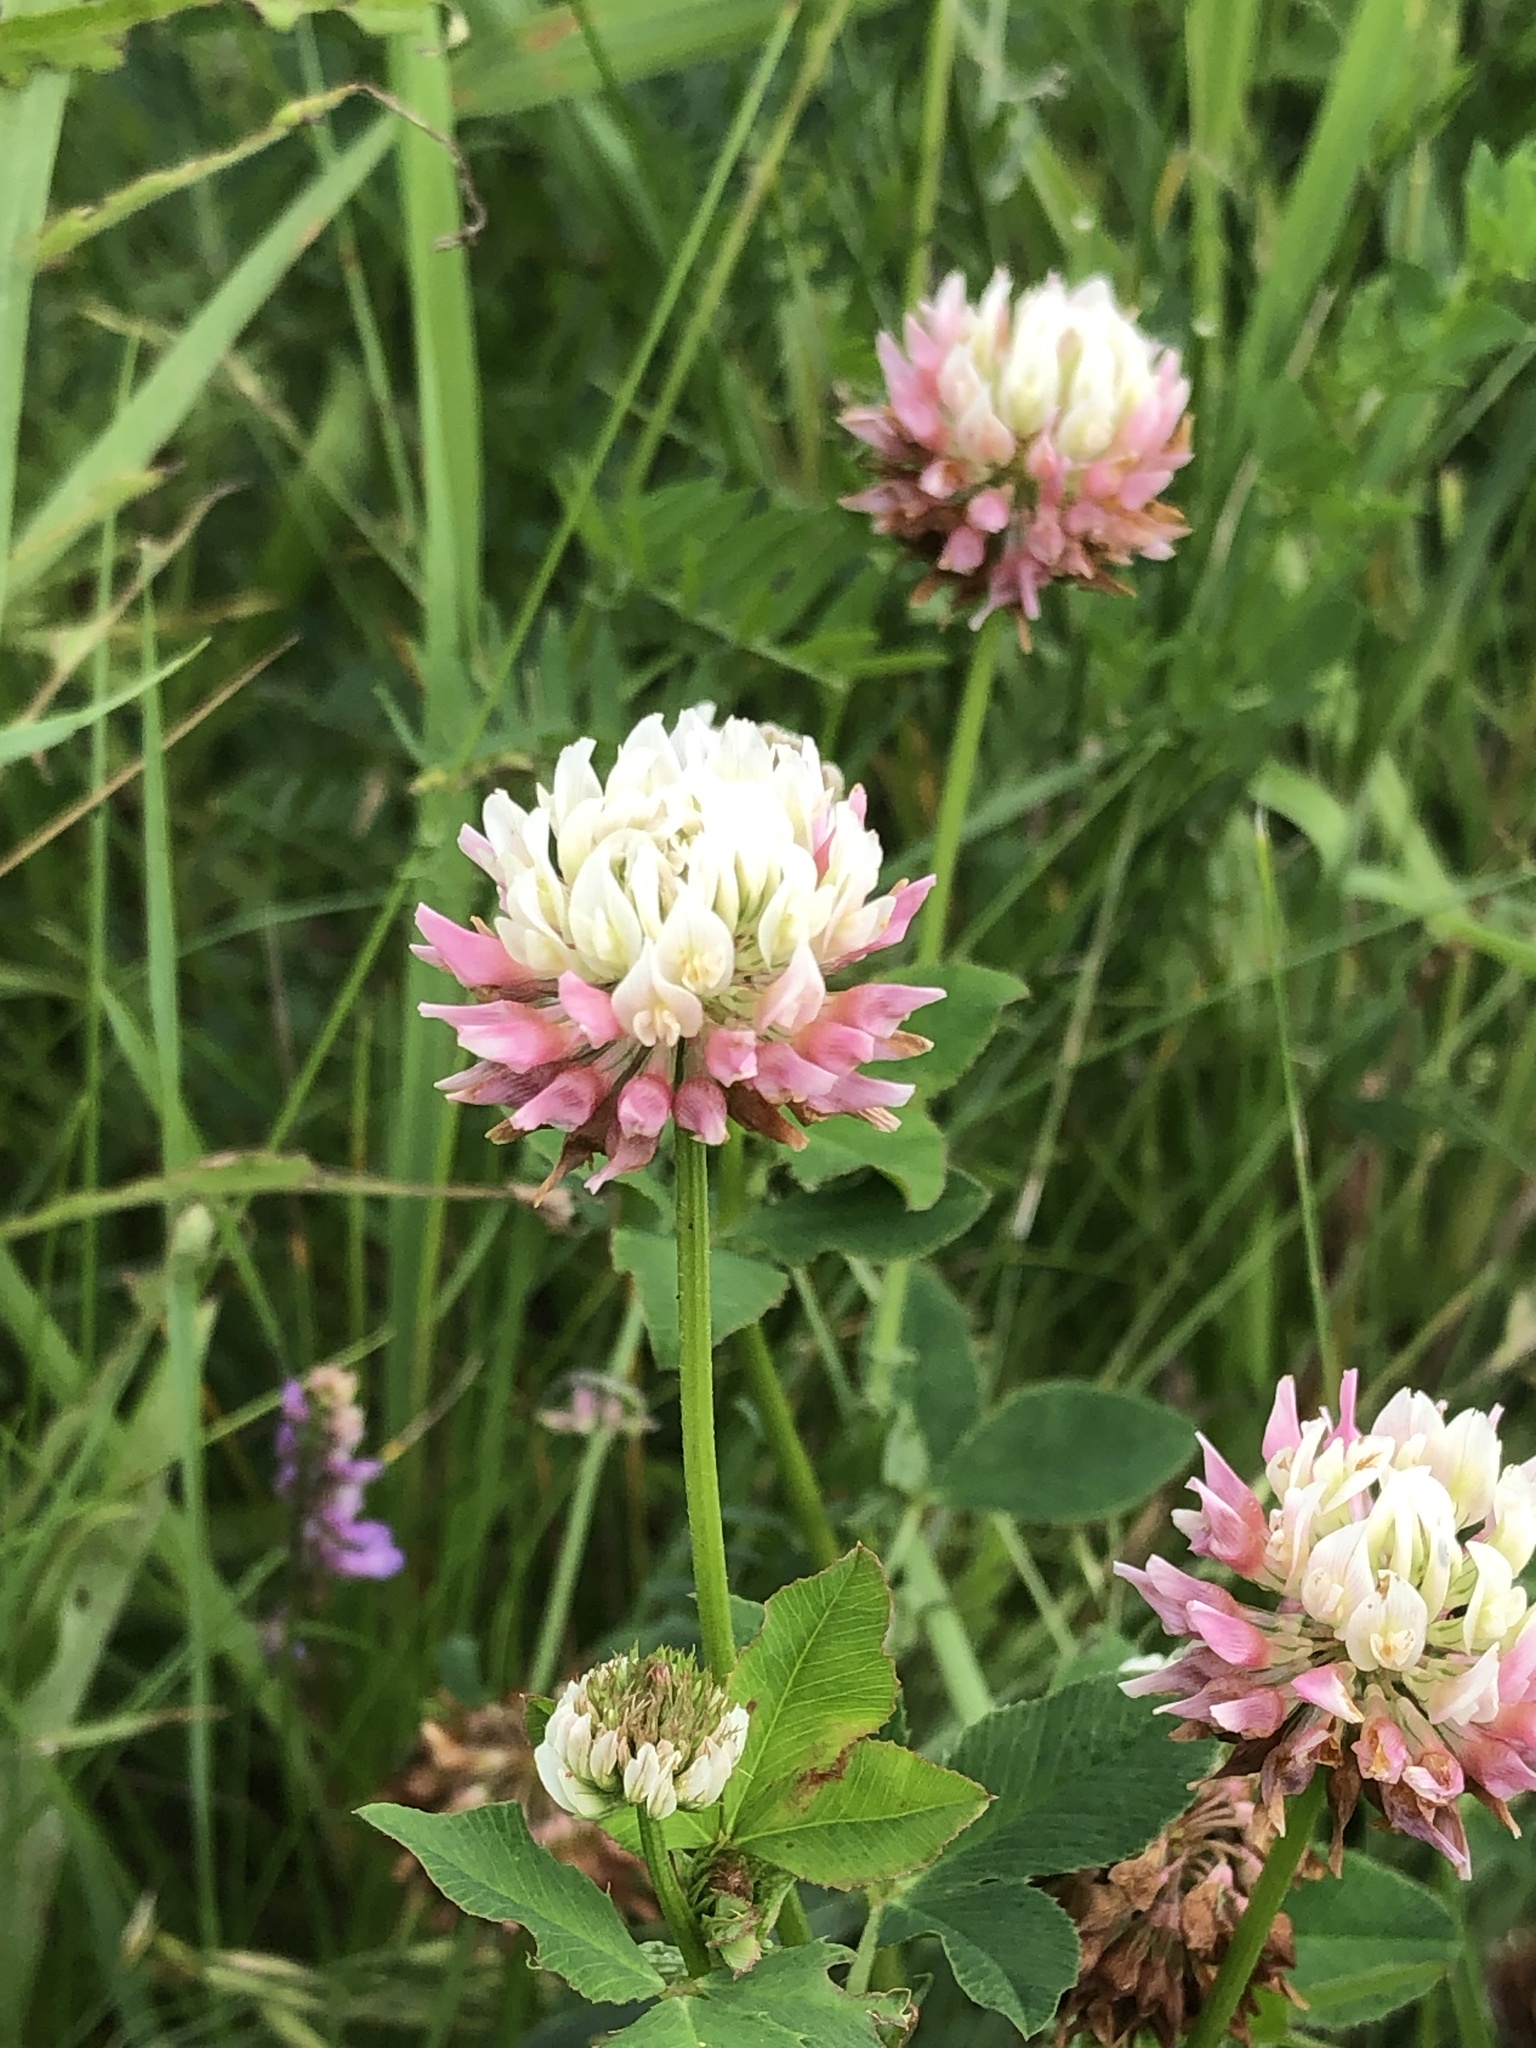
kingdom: Plantae
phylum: Tracheophyta
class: Magnoliopsida
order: Fabales
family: Fabaceae
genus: Trifolium
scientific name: Trifolium hybridum
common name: Alsike clover
